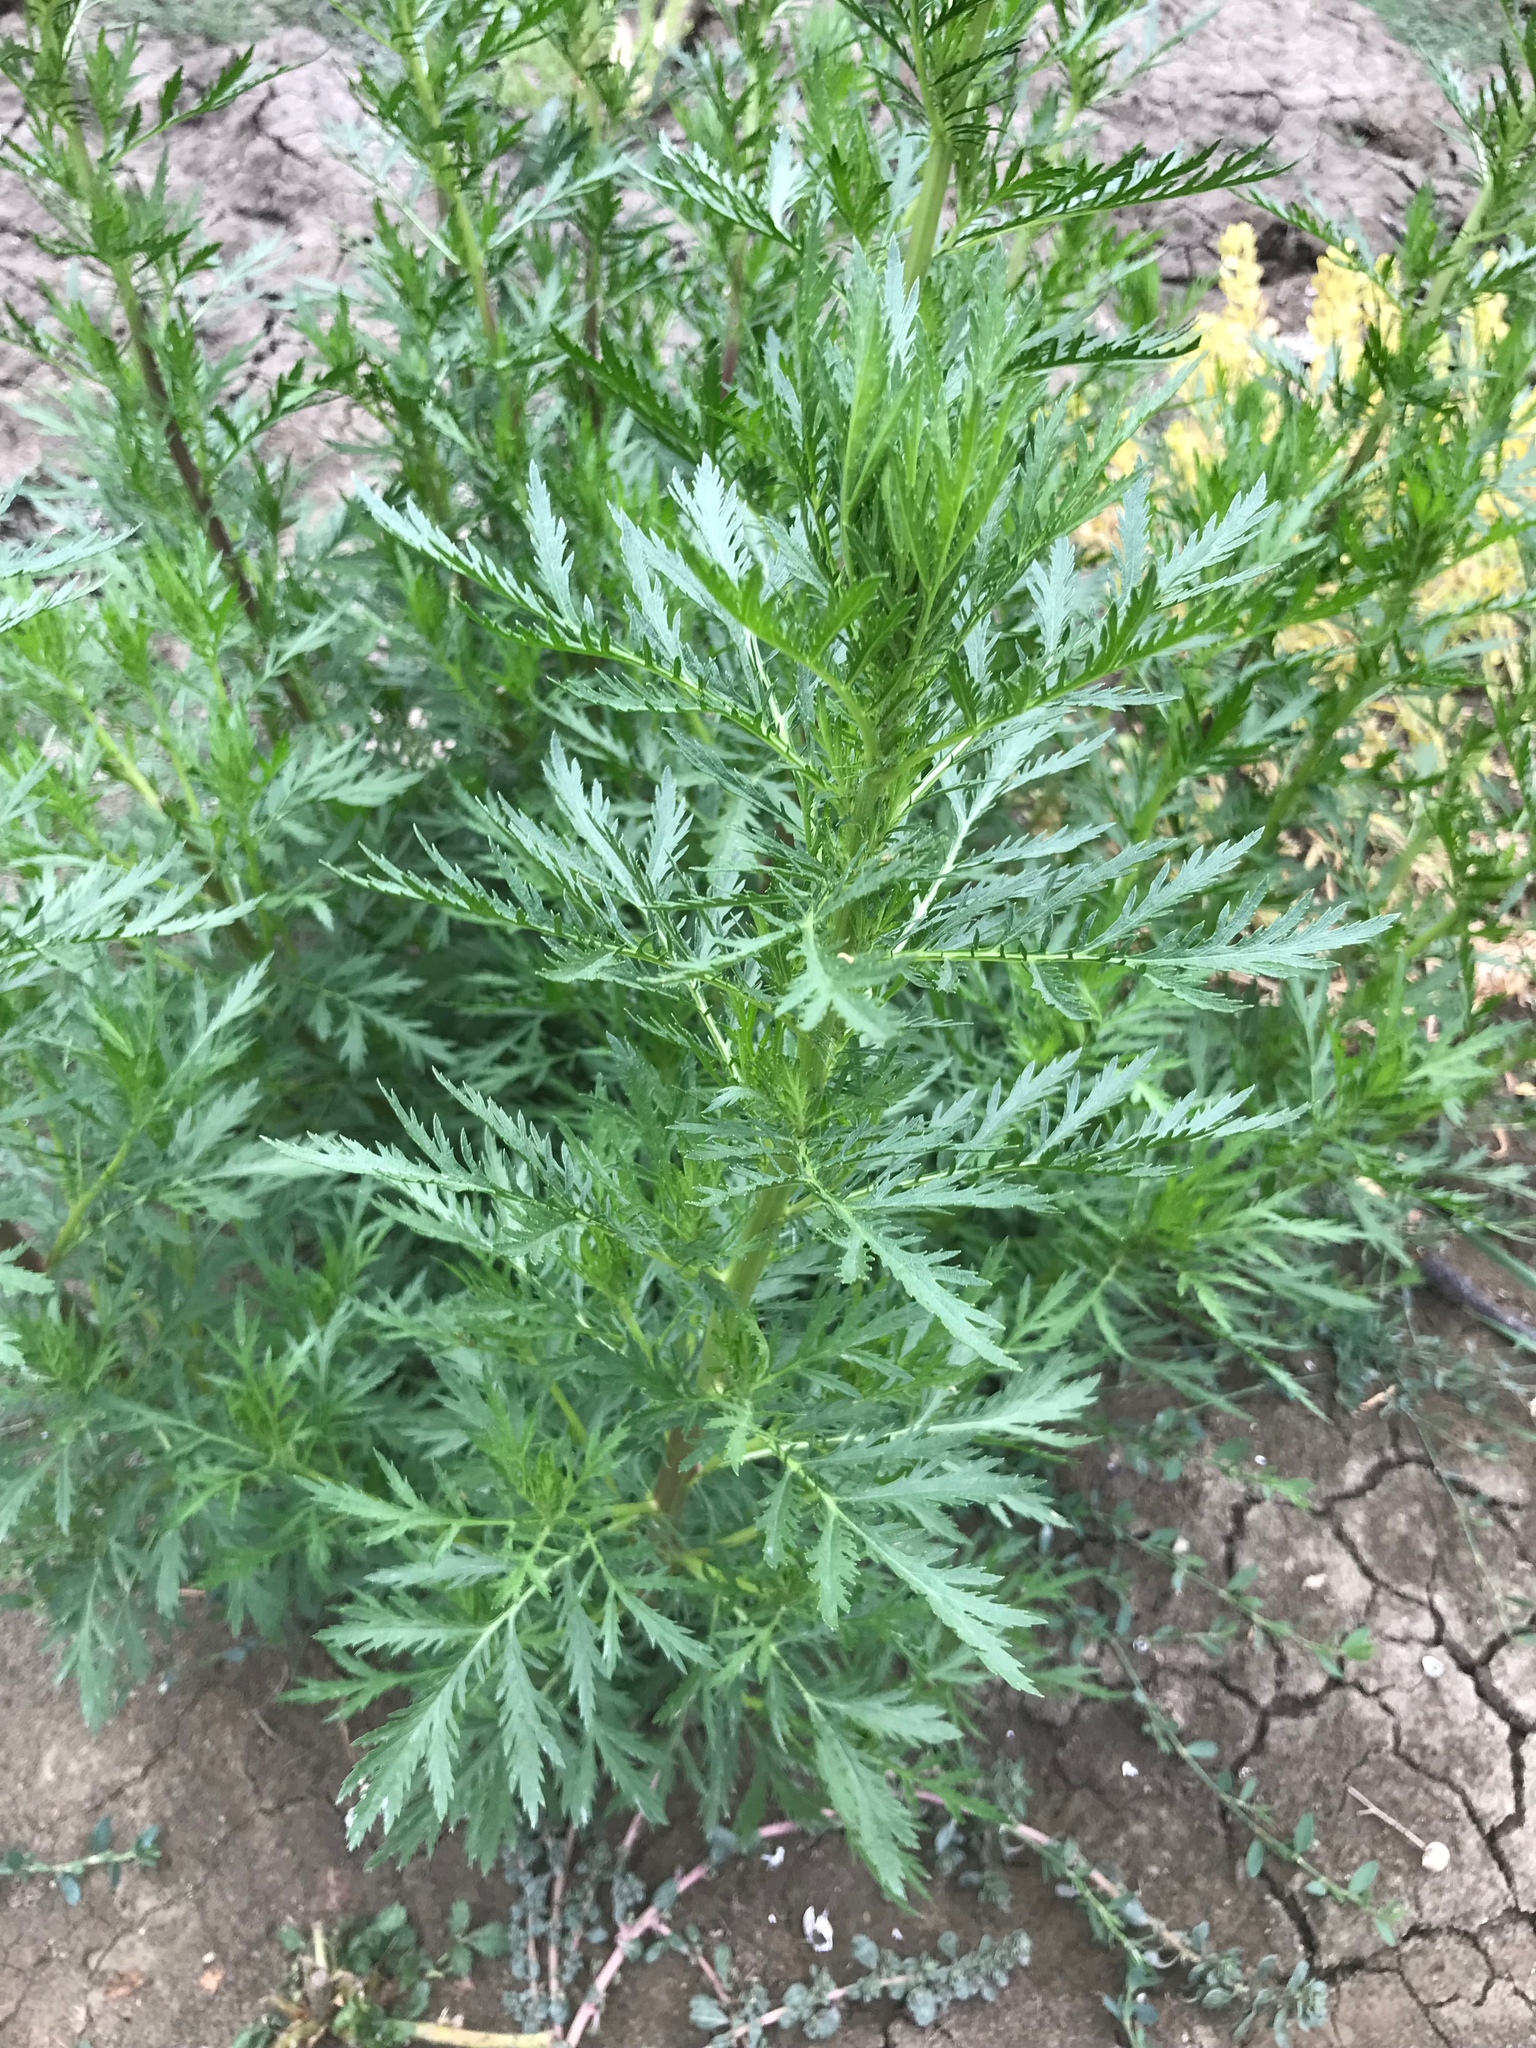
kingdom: Plantae
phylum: Tracheophyta
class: Magnoliopsida
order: Asterales
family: Asteraceae
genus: Artemisia
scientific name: Artemisia biennis
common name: Biennial wormwood
